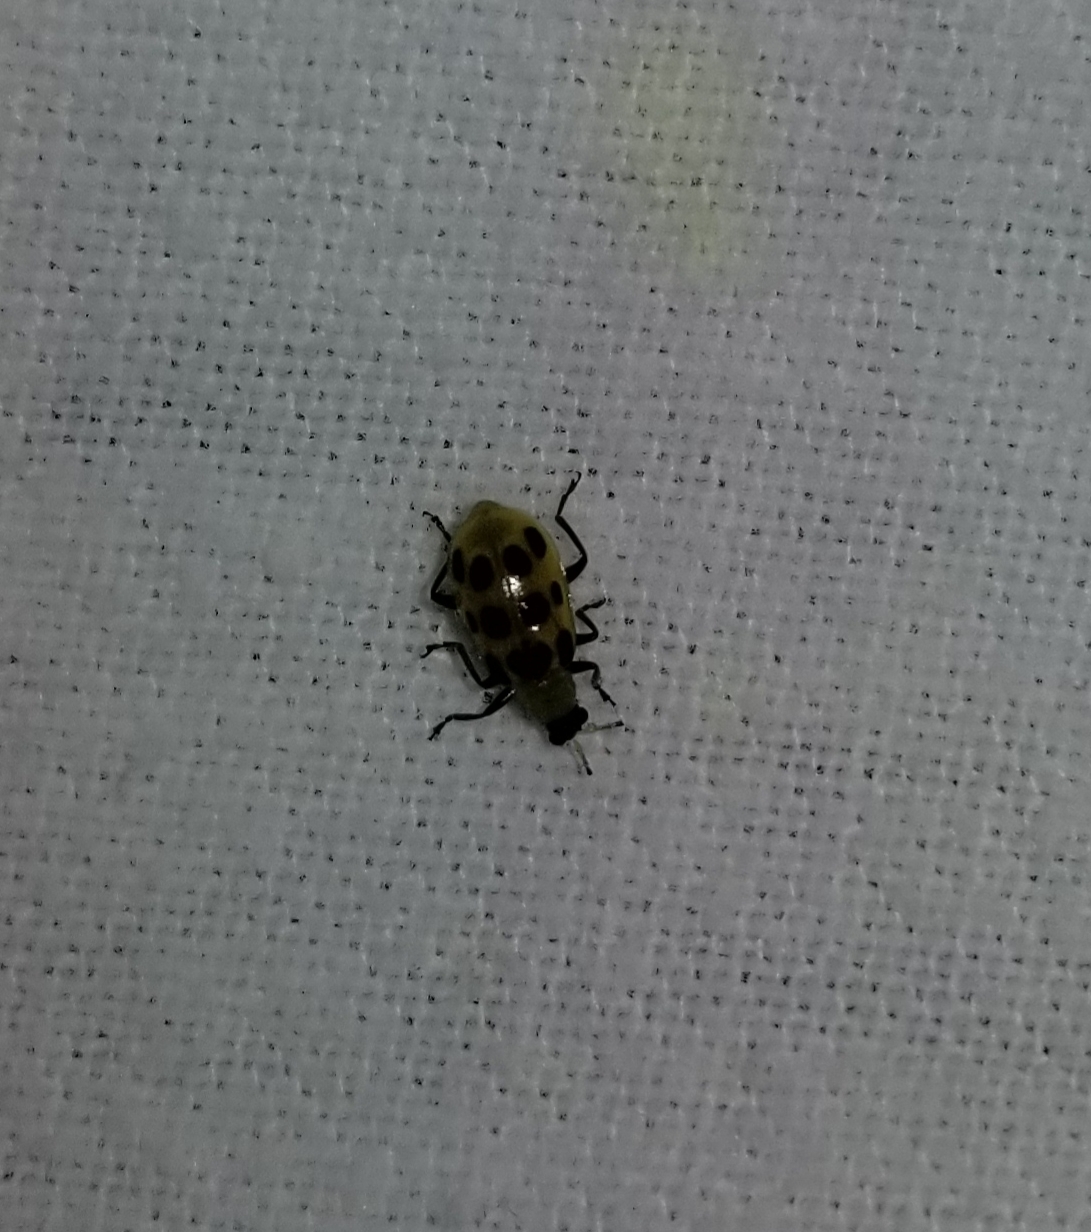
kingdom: Animalia
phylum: Arthropoda
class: Insecta
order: Coleoptera
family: Chrysomelidae
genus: Diabrotica
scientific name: Diabrotica undecimpunctata
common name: Spotted cucumber beetle
